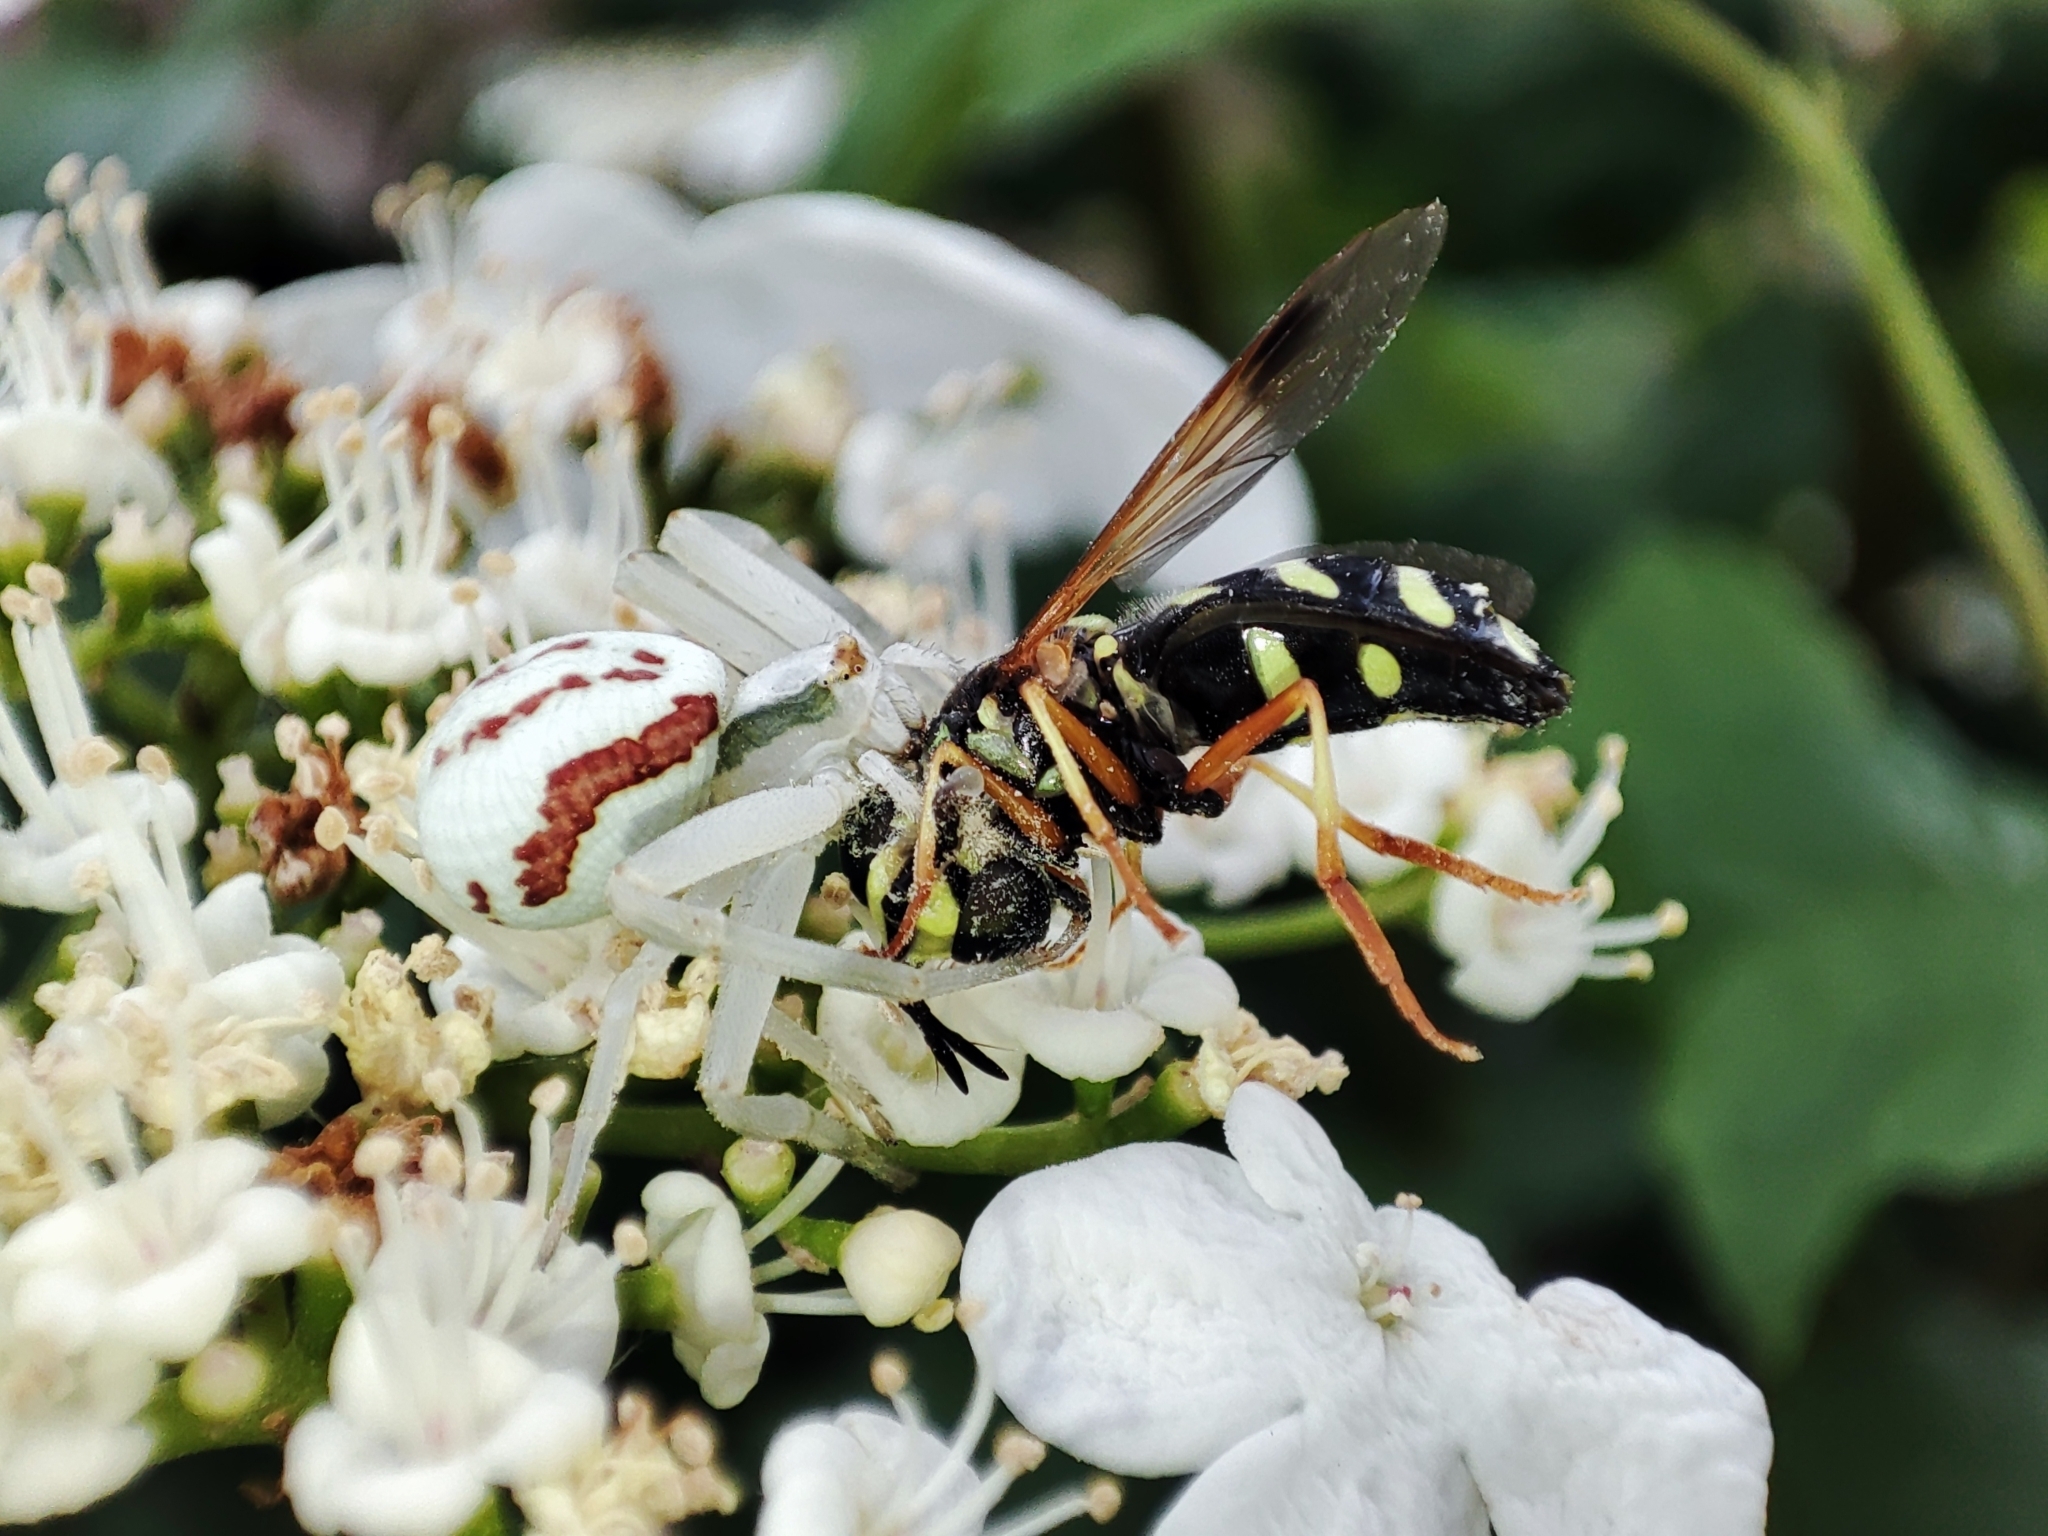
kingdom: Animalia
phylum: Arthropoda
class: Arachnida
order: Araneae
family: Thomisidae
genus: Misumena
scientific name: Misumena vatia
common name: Goldenrod crab spider
